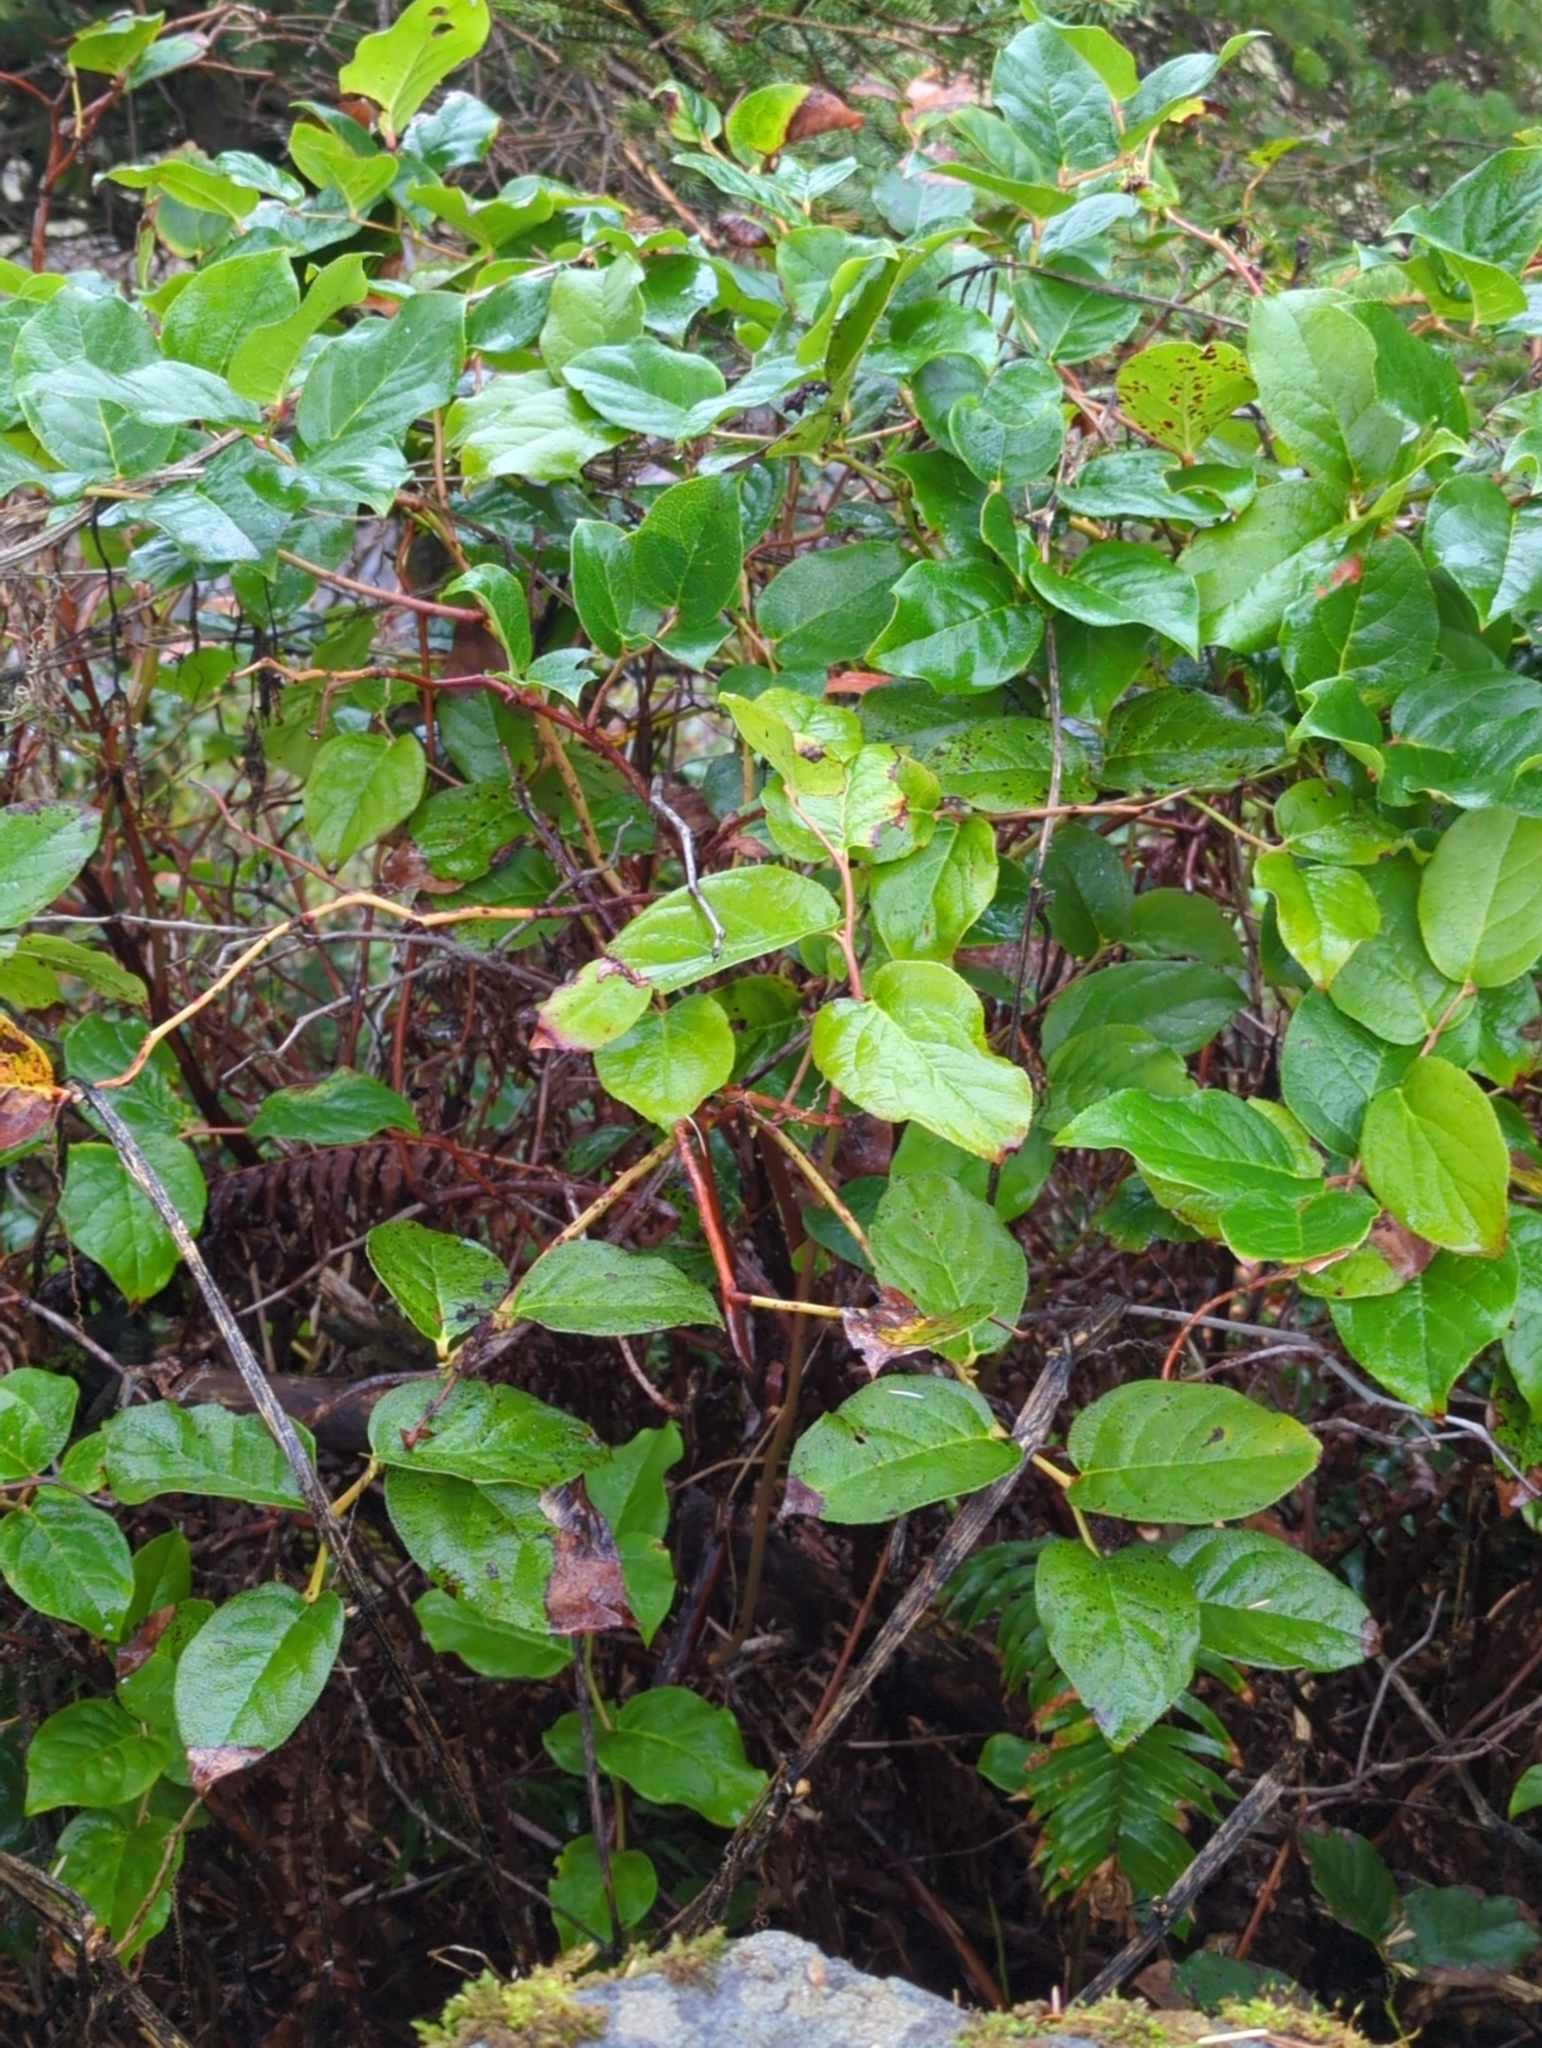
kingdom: Plantae
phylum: Tracheophyta
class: Magnoliopsida
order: Ericales
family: Ericaceae
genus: Gaultheria
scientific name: Gaultheria shallon
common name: Shallon
